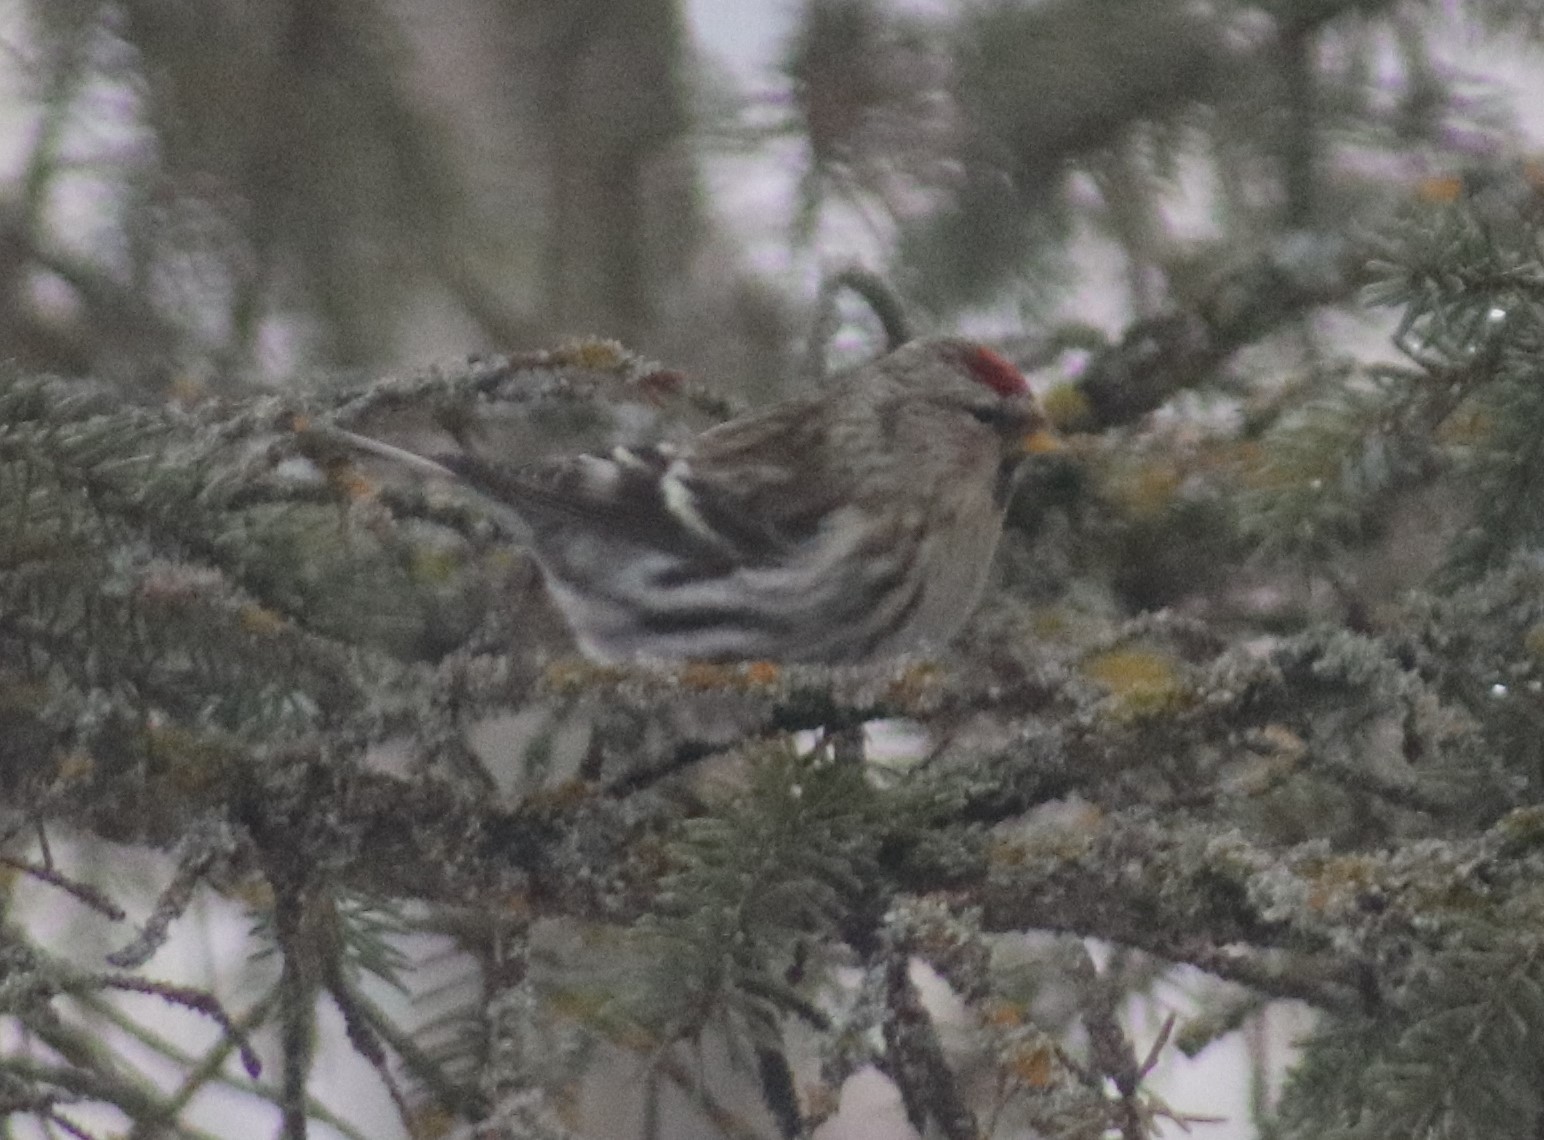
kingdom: Animalia
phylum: Chordata
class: Aves
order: Passeriformes
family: Fringillidae
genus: Acanthis
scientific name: Acanthis flammea
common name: Common redpoll
